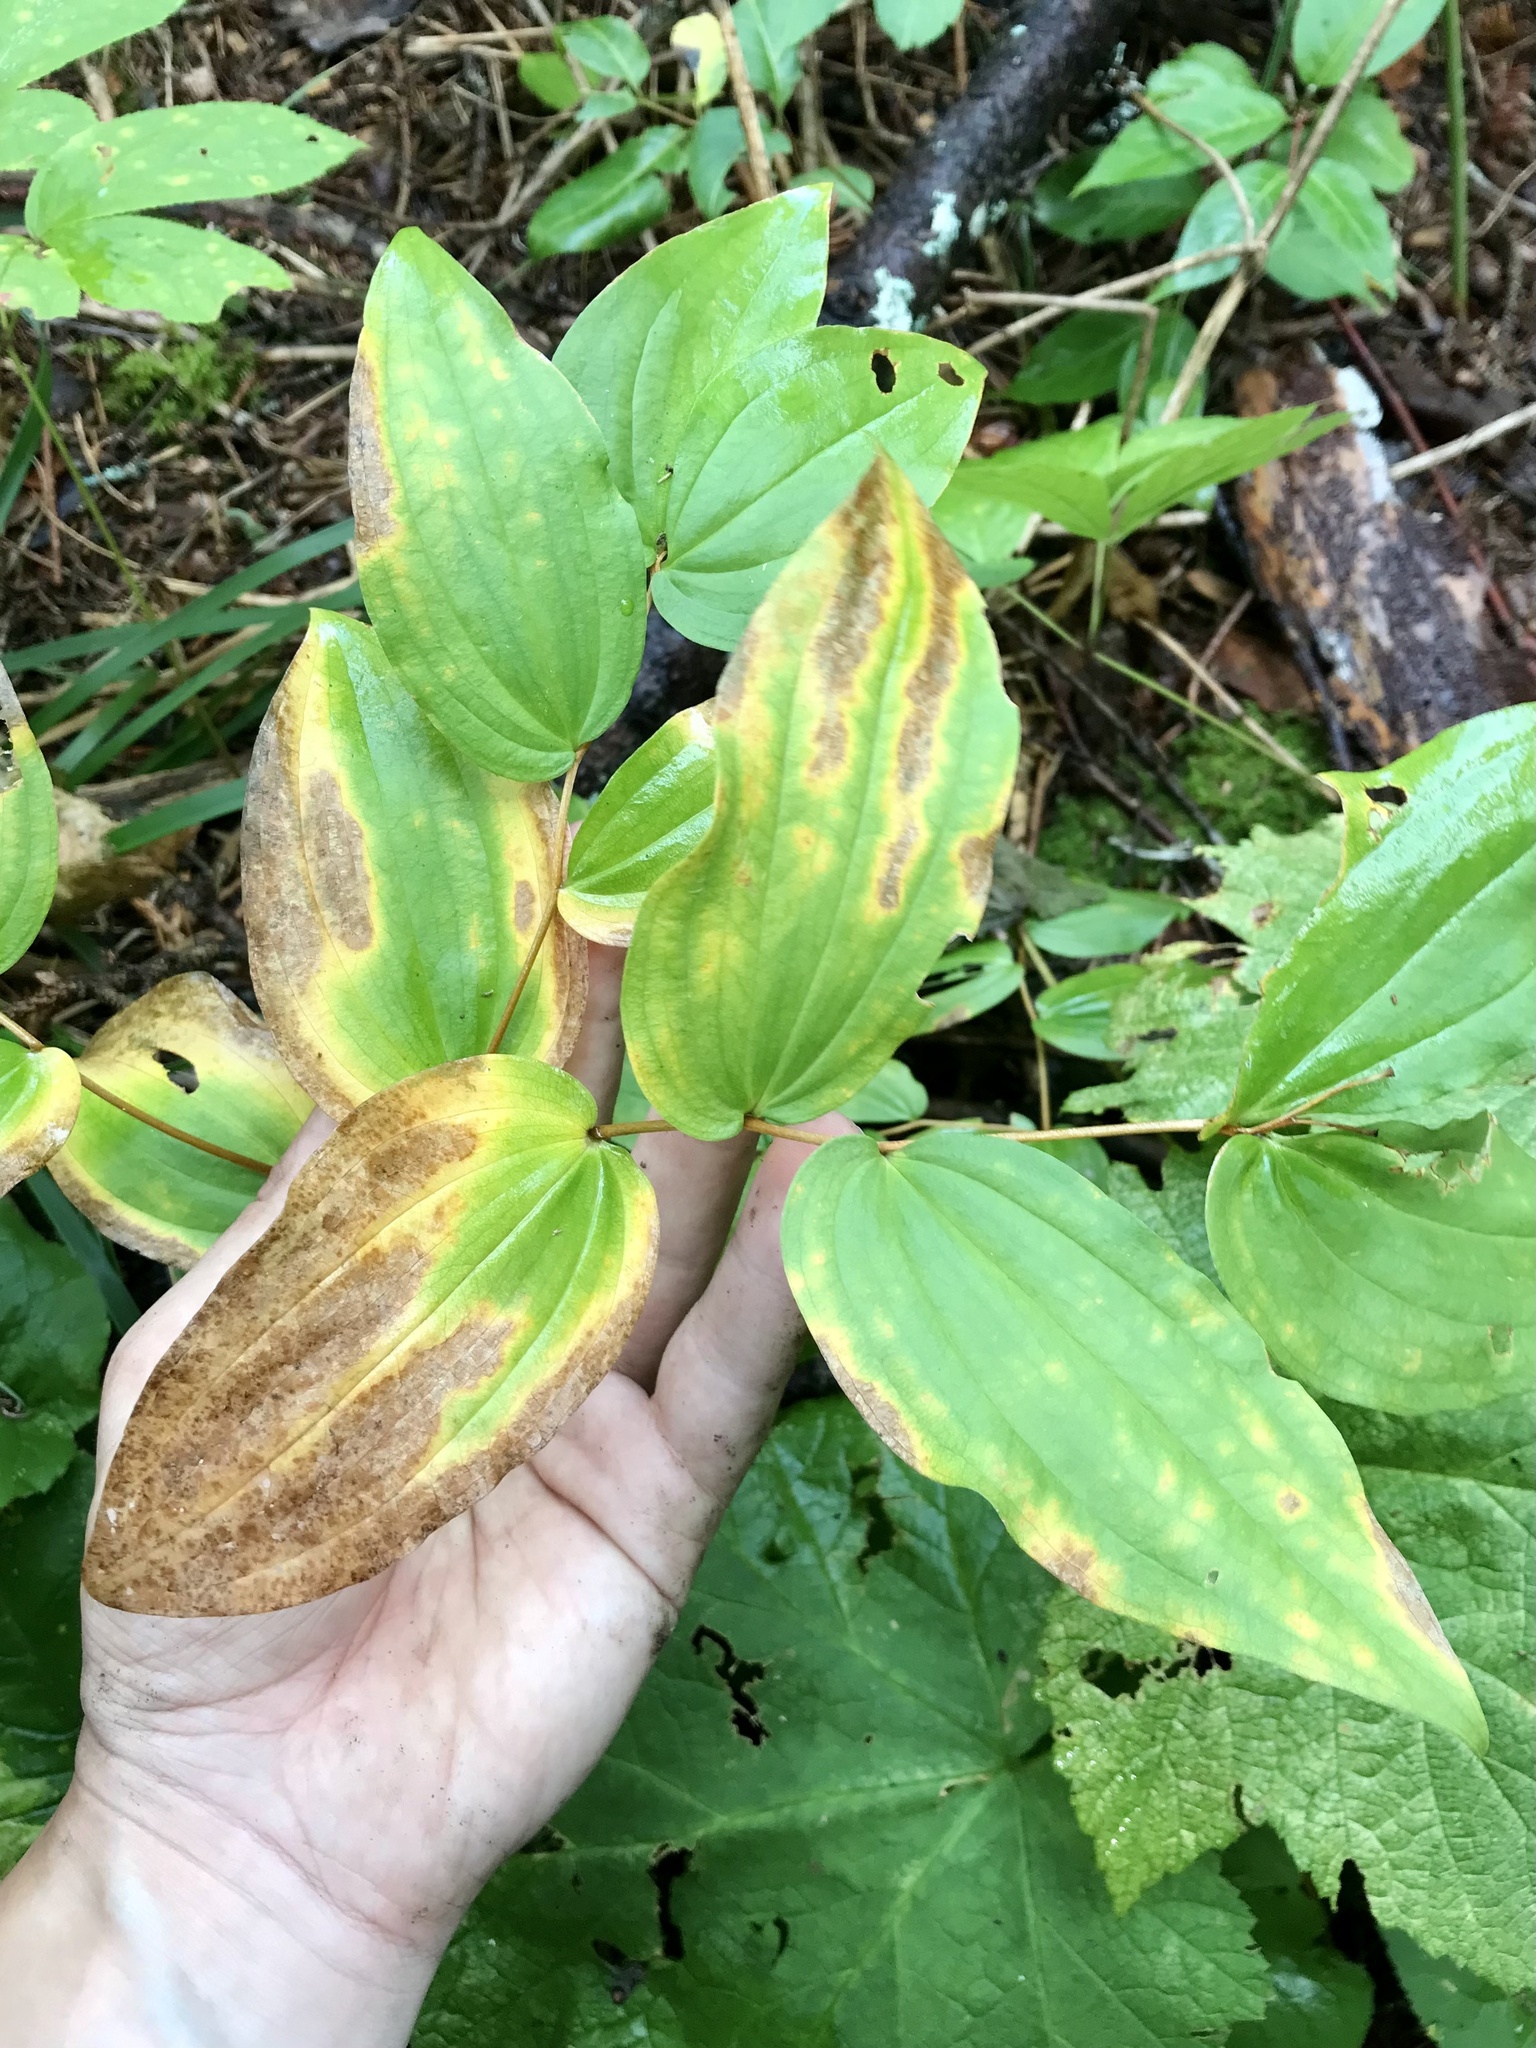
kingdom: Plantae
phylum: Tracheophyta
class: Liliopsida
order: Liliales
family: Liliaceae
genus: Prosartes
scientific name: Prosartes trachycarpa
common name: Rough-fruit fairy-bells
